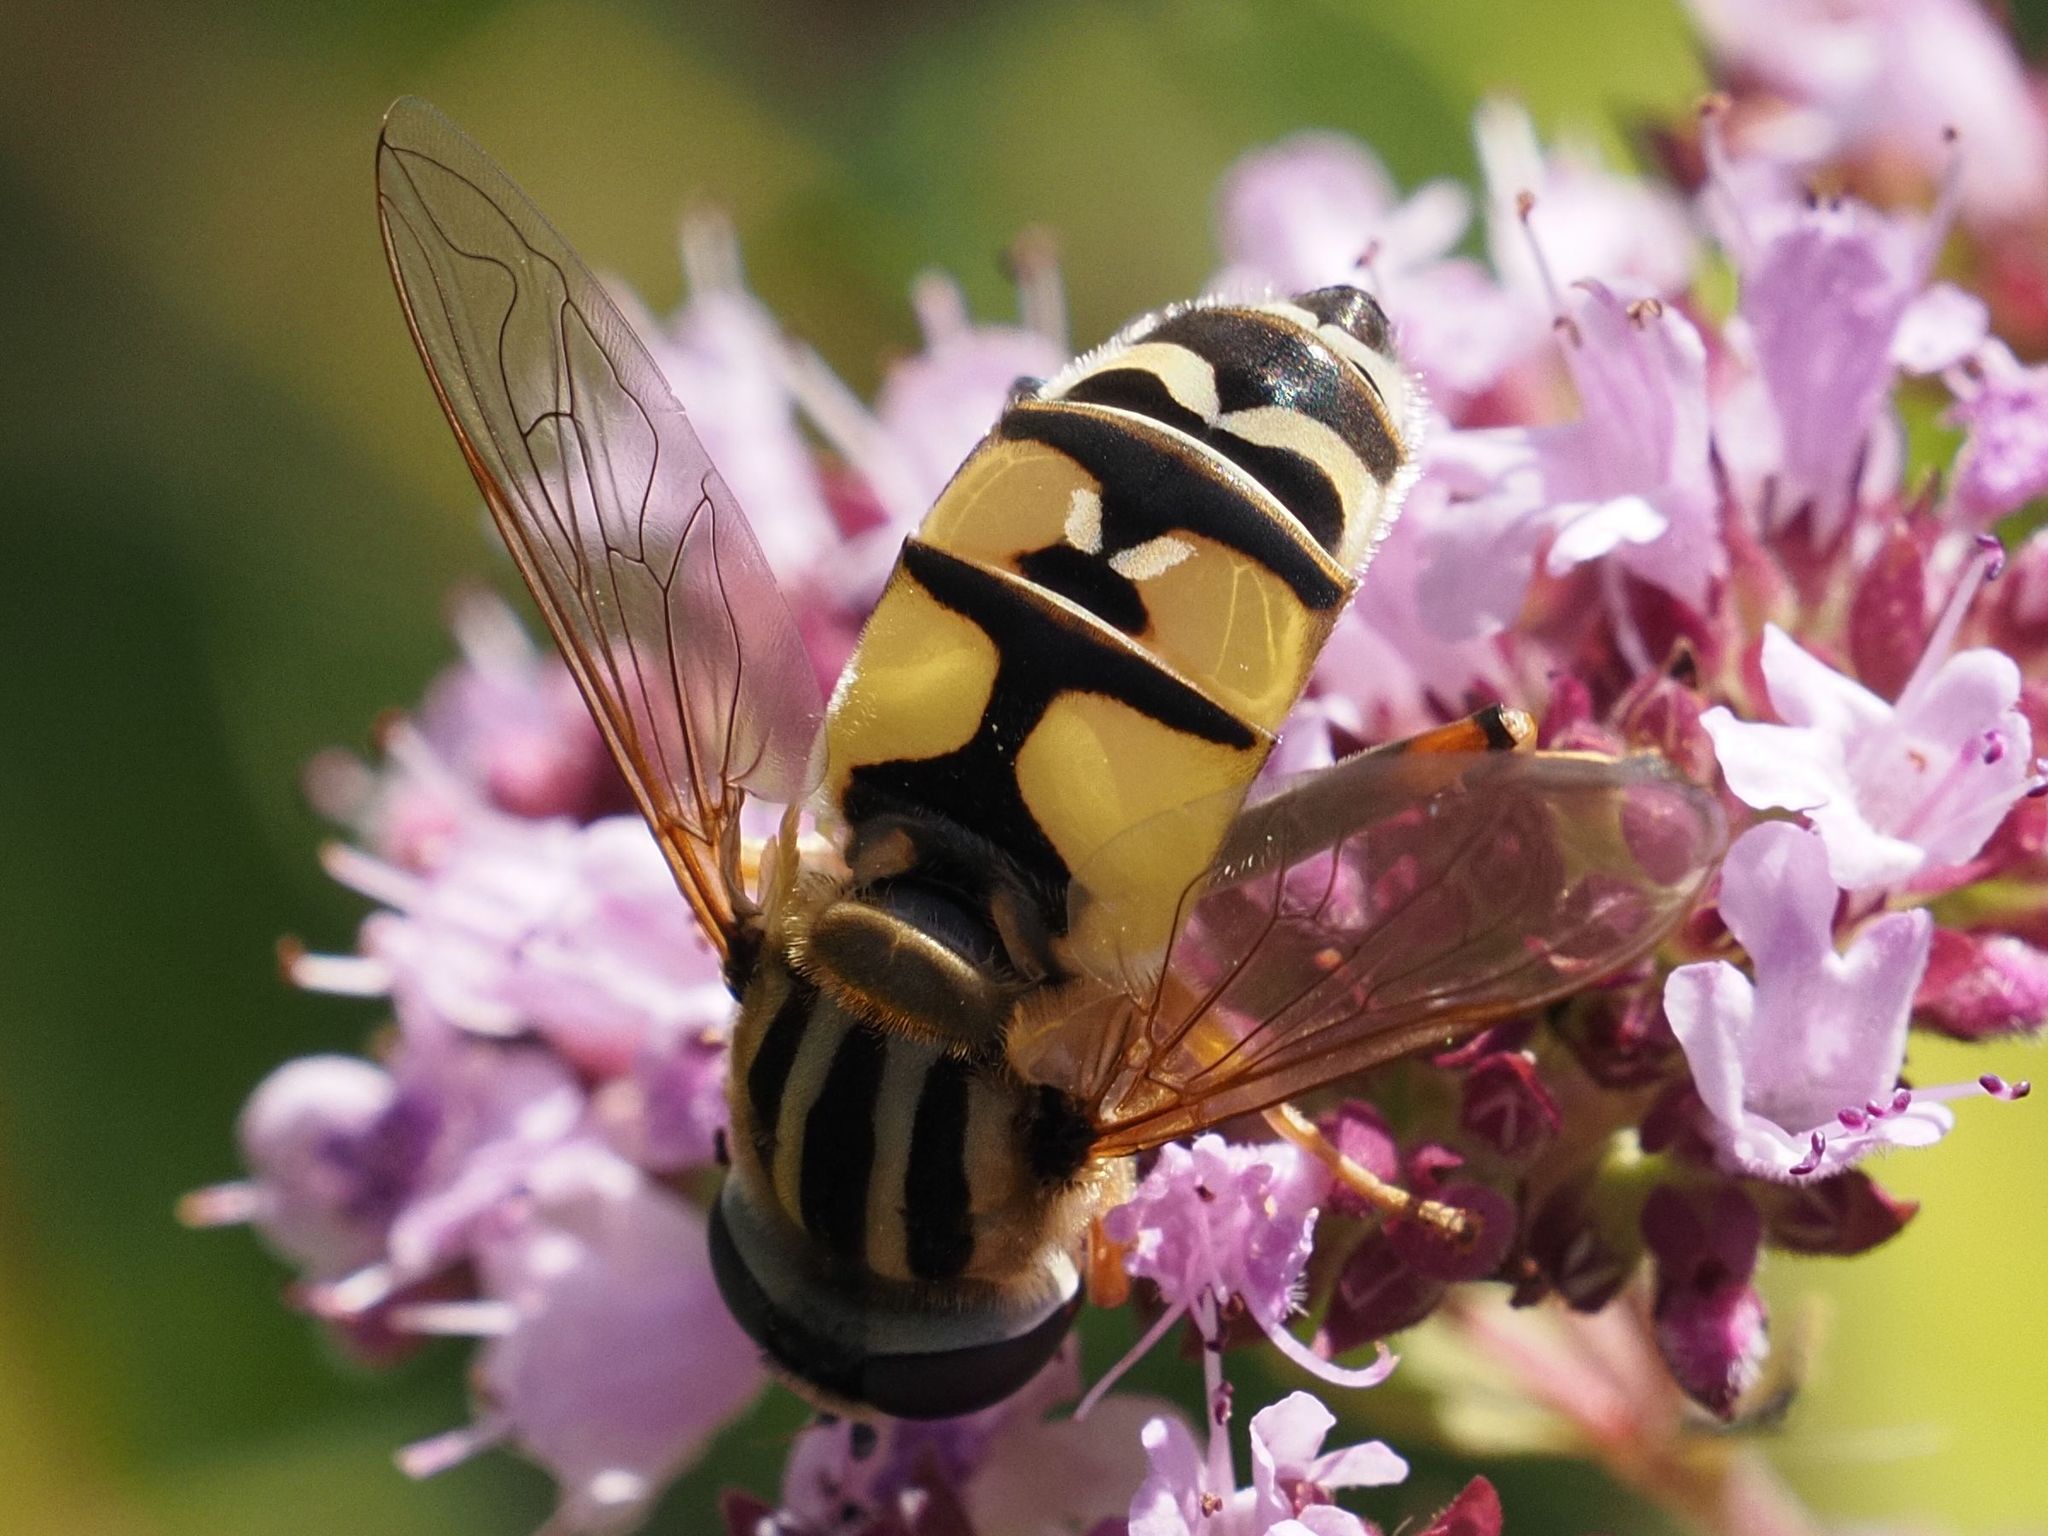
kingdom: Animalia
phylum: Arthropoda
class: Insecta
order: Diptera
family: Syrphidae
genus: Helophilus
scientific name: Helophilus trivittatus
